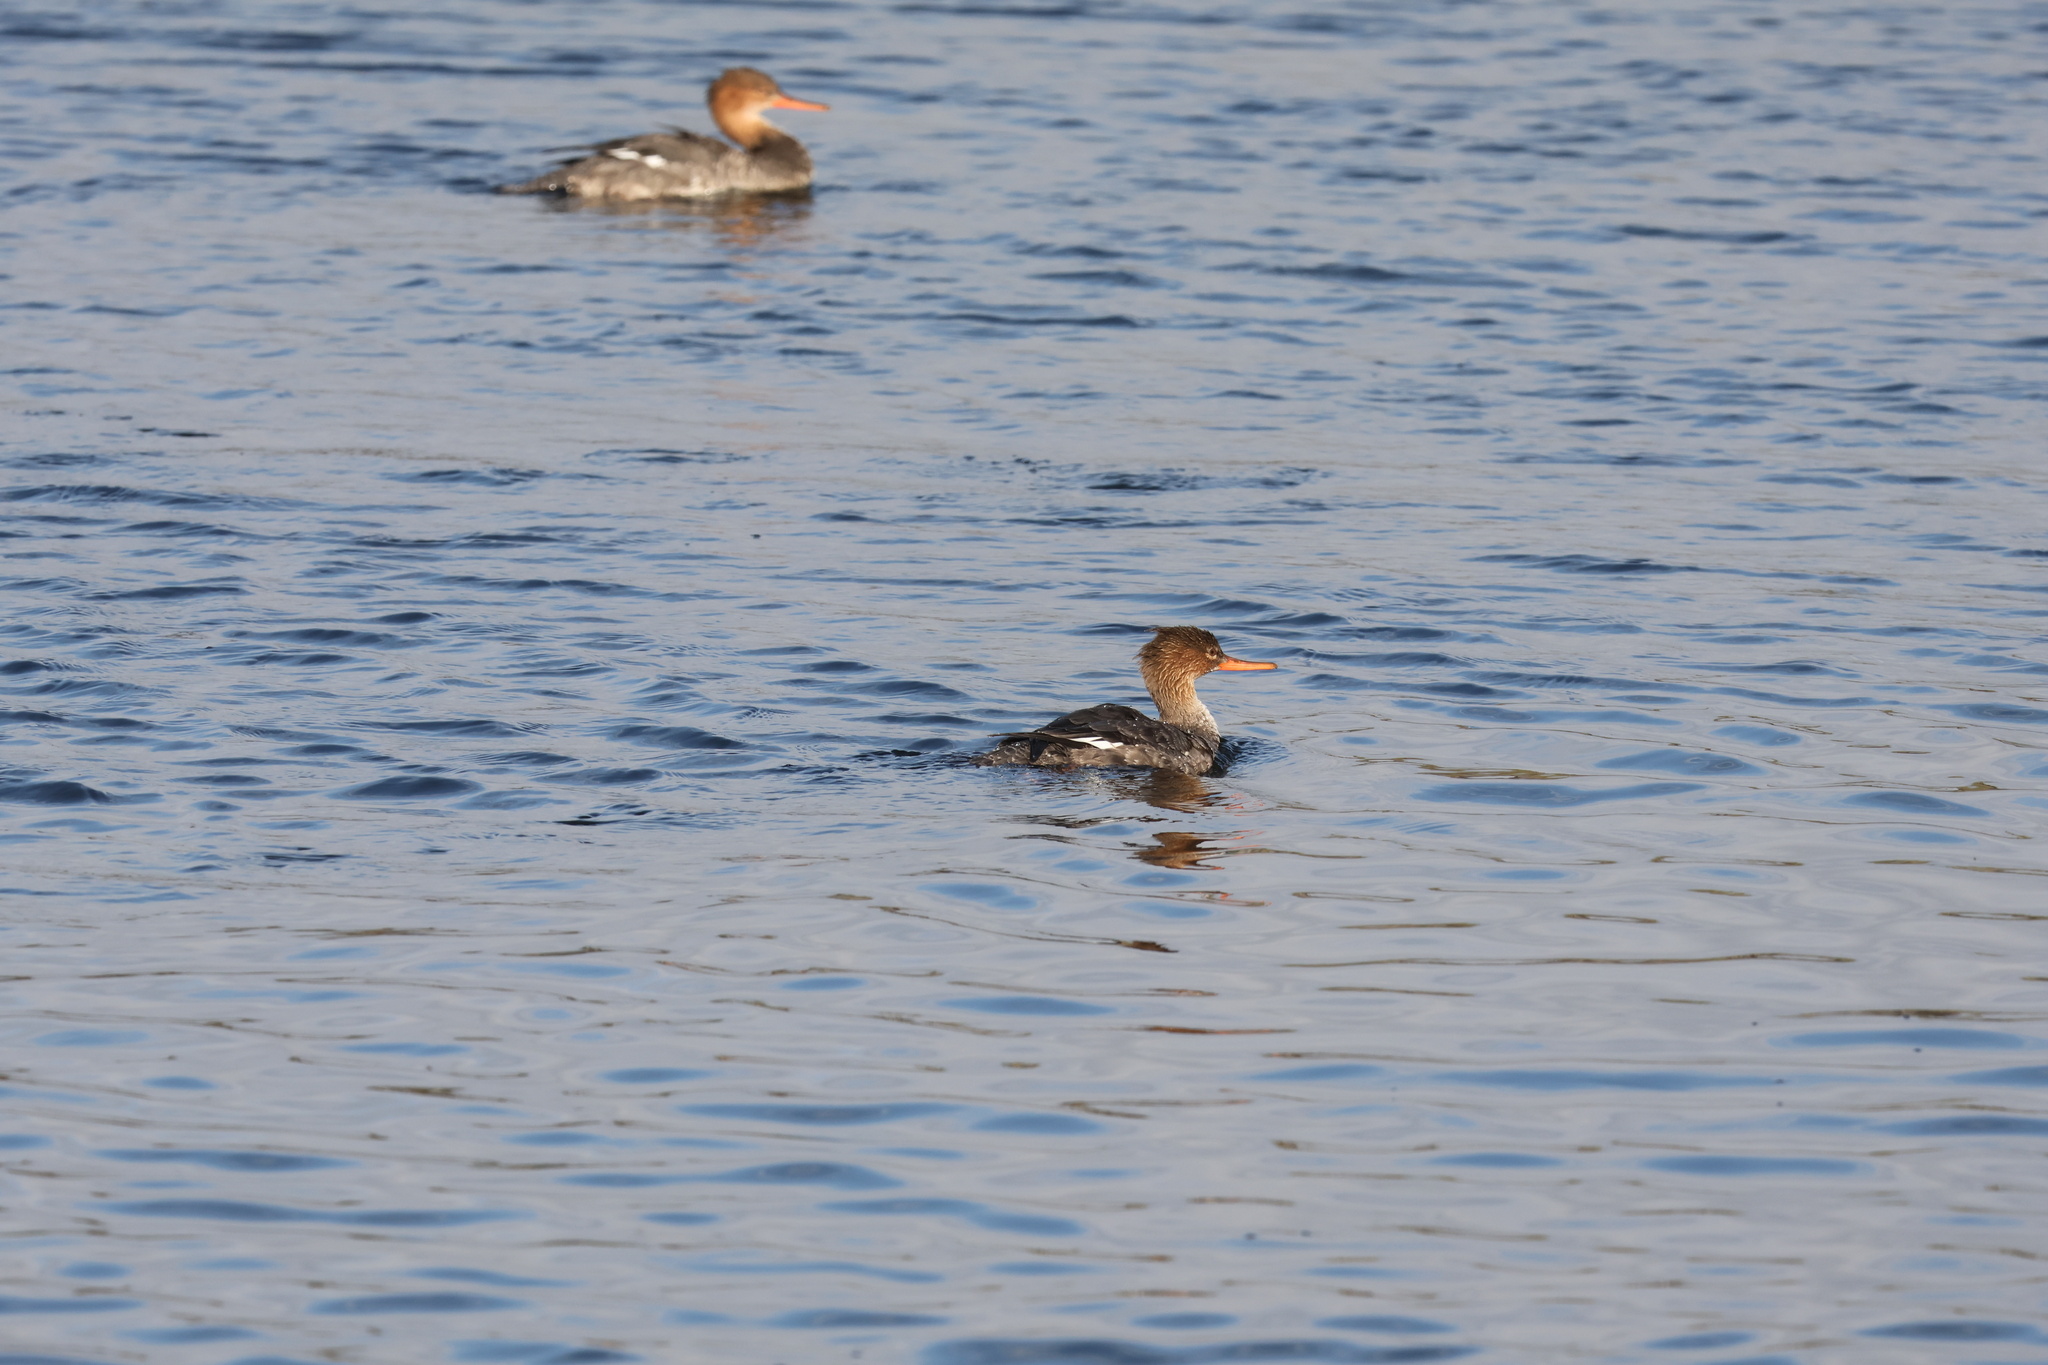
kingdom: Animalia
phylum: Chordata
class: Aves
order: Anseriformes
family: Anatidae
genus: Mergus
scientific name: Mergus serrator
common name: Red-breasted merganser
